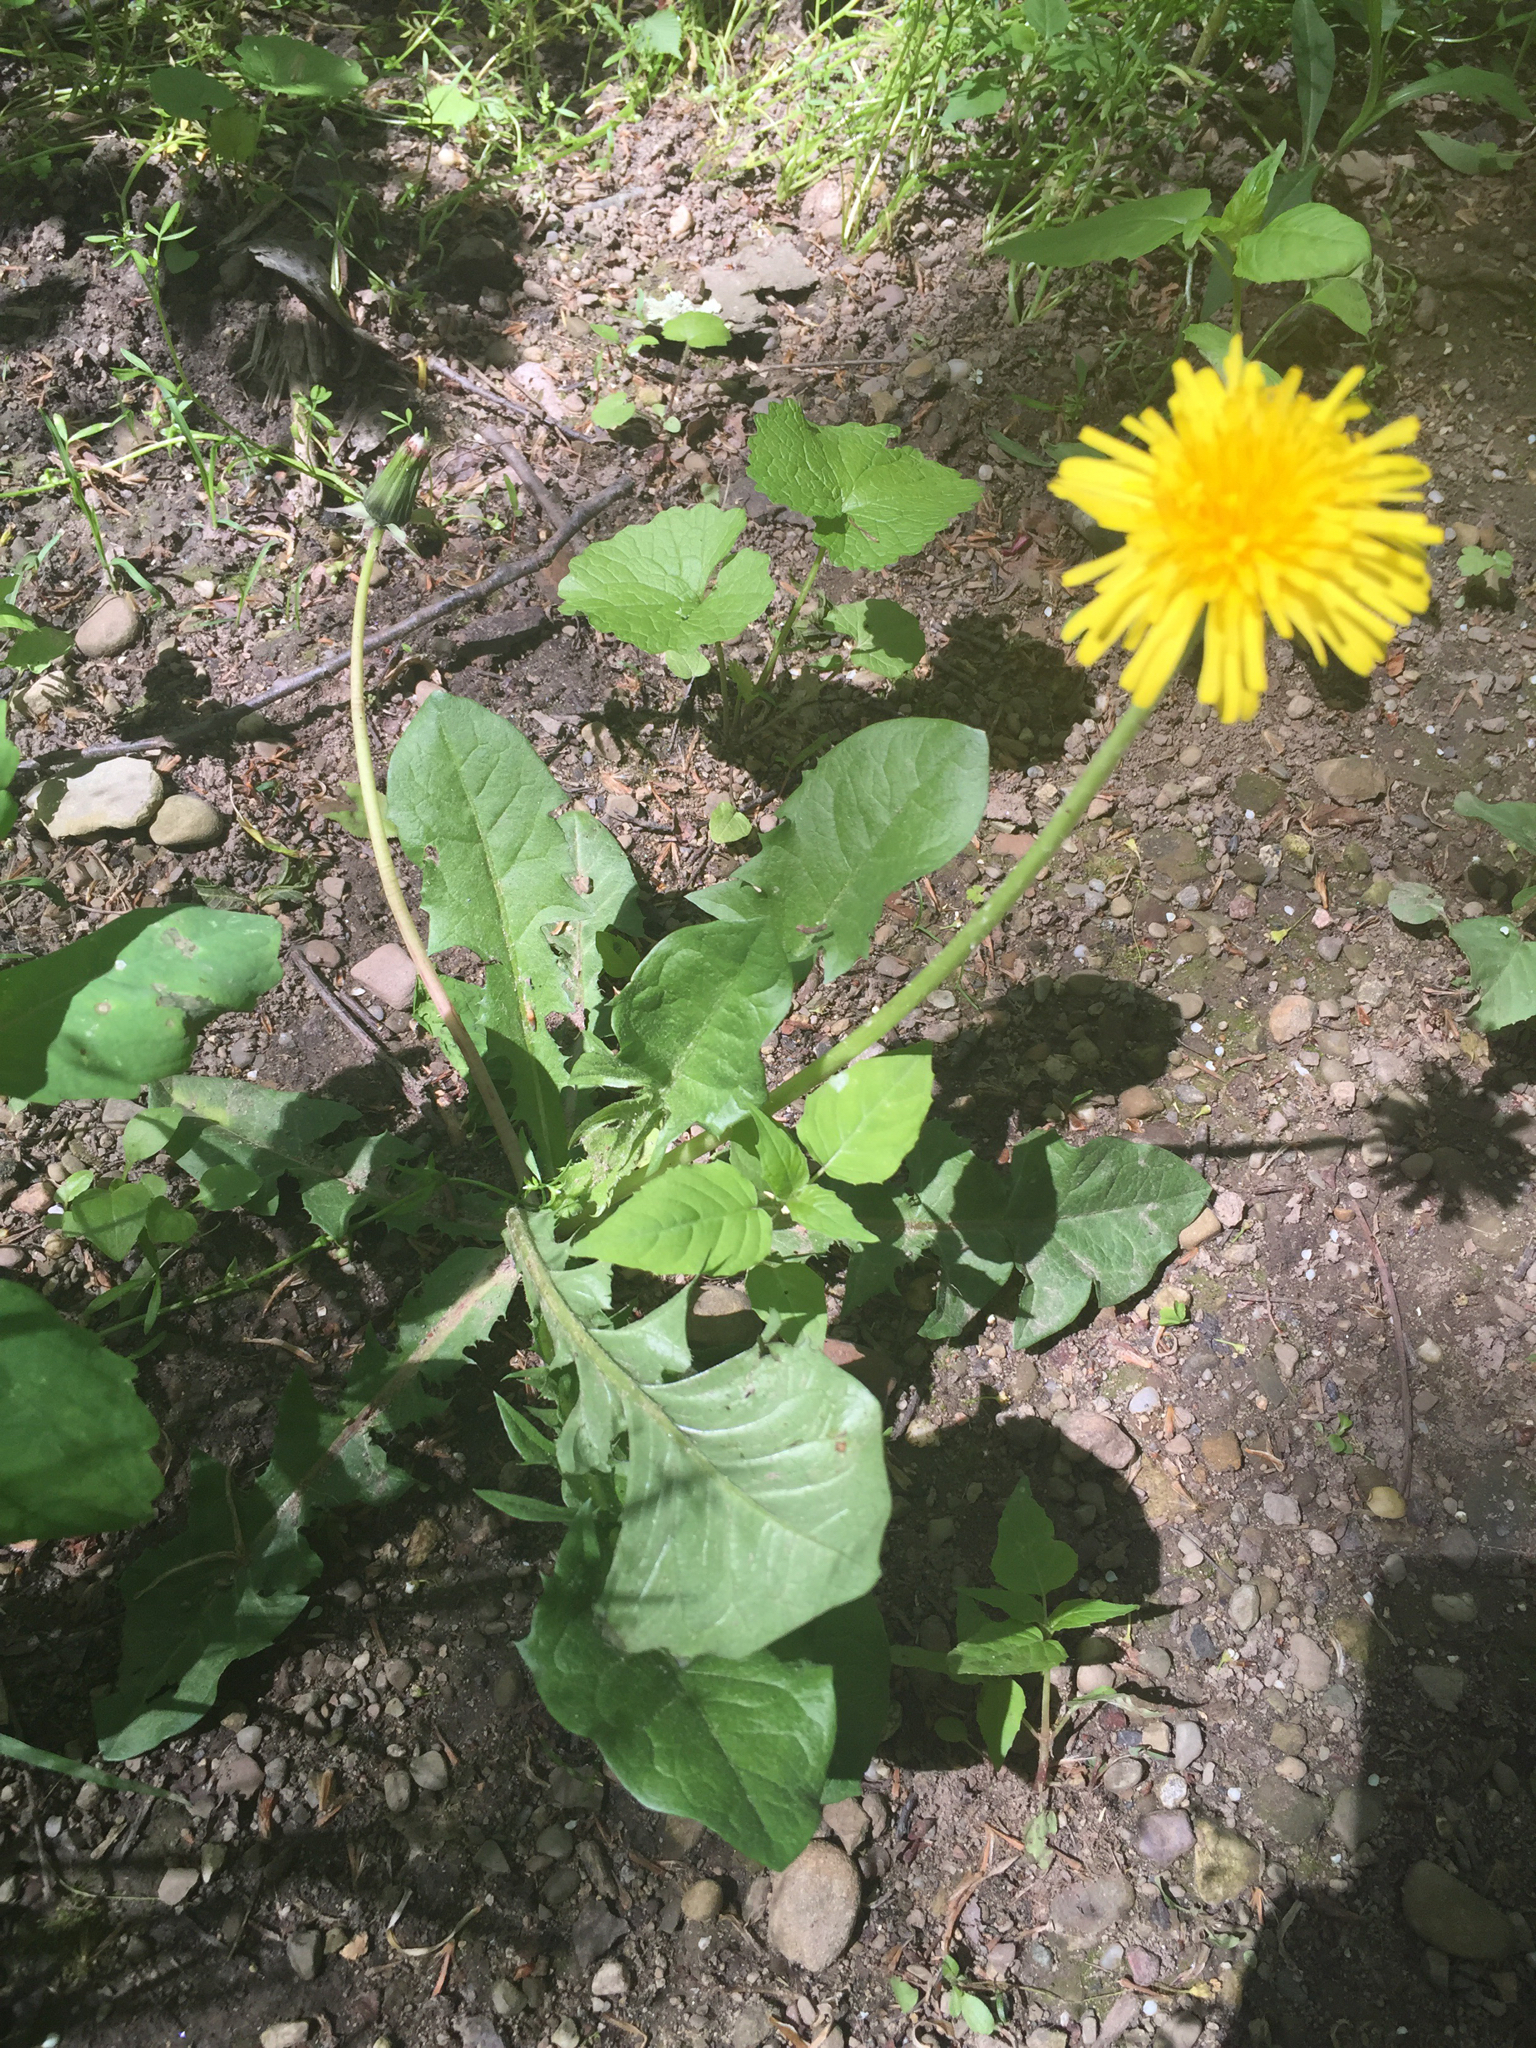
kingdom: Plantae
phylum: Tracheophyta
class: Magnoliopsida
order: Asterales
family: Asteraceae
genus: Taraxacum
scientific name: Taraxacum officinale
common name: Common dandelion
